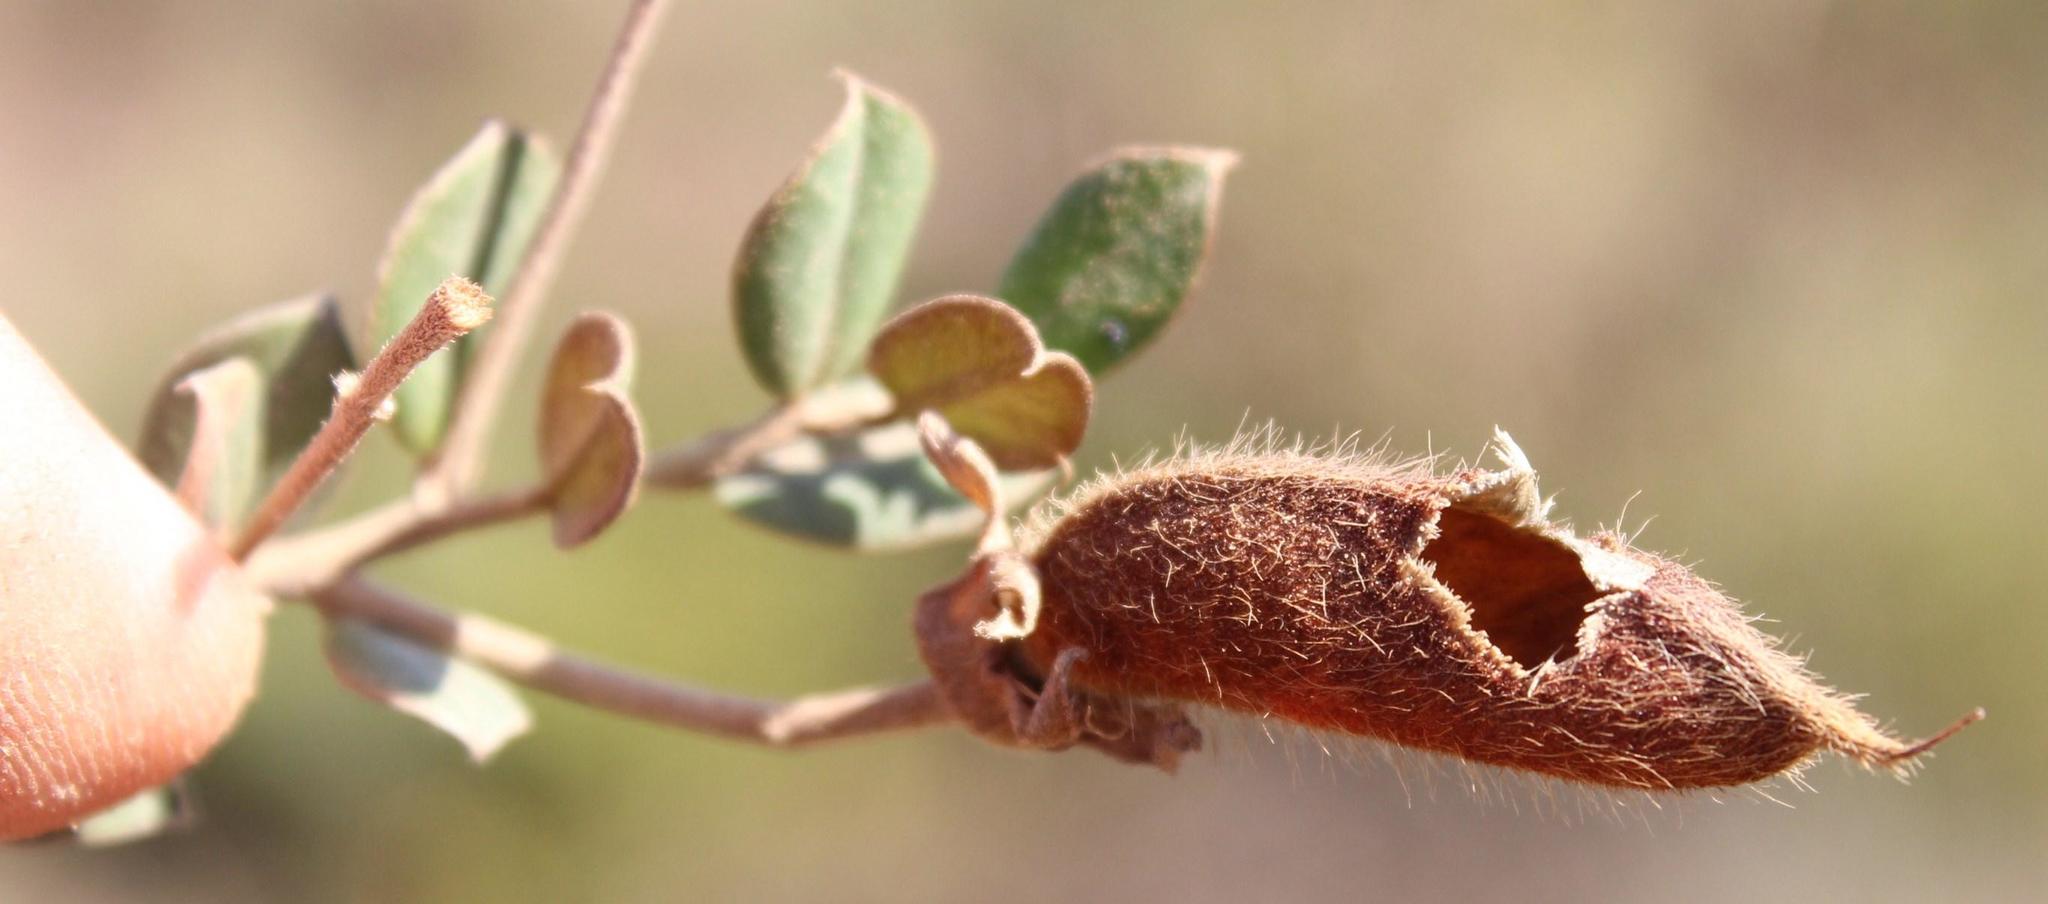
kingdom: Plantae
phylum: Tracheophyta
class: Magnoliopsida
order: Fabales
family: Fabaceae
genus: Podalyria
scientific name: Podalyria biflora
